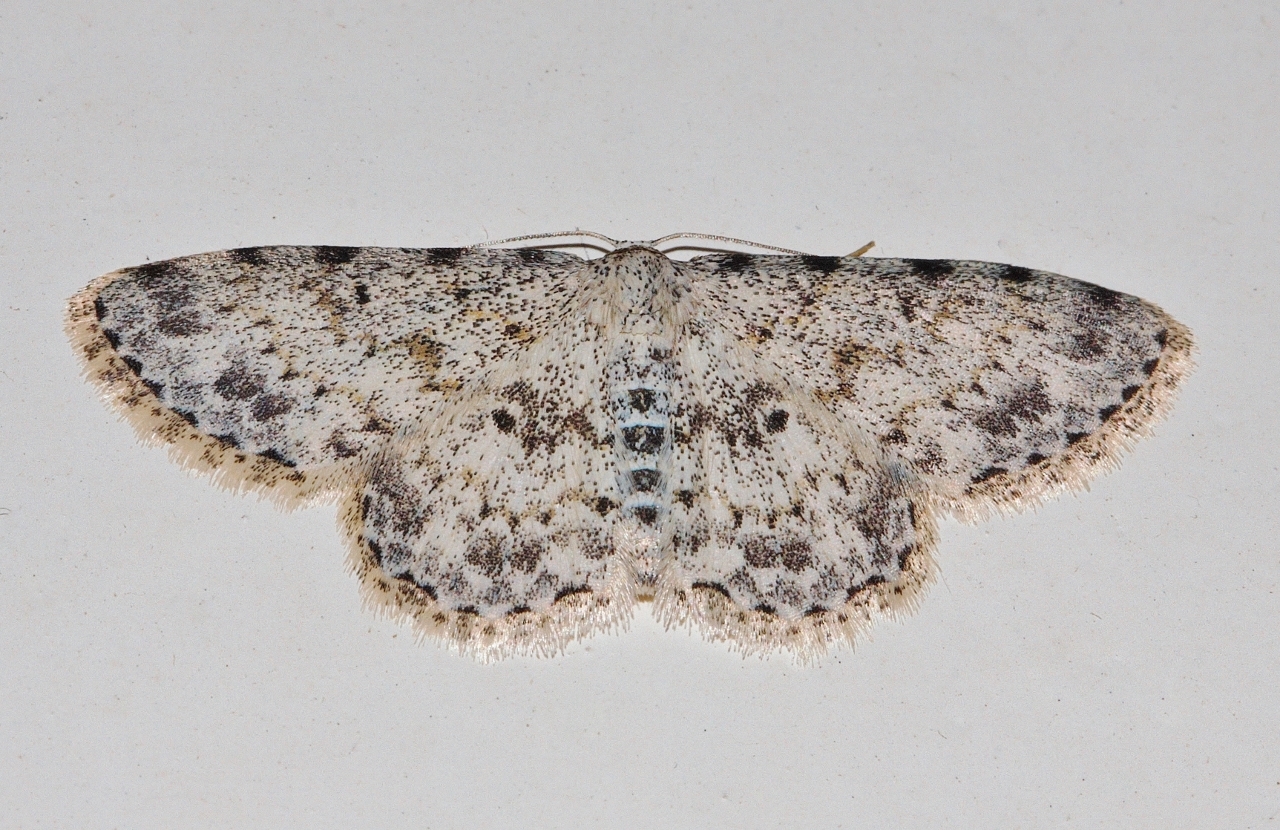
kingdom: Animalia
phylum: Arthropoda
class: Insecta
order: Lepidoptera
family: Geometridae
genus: Scopula
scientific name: Scopula nigrinotata
